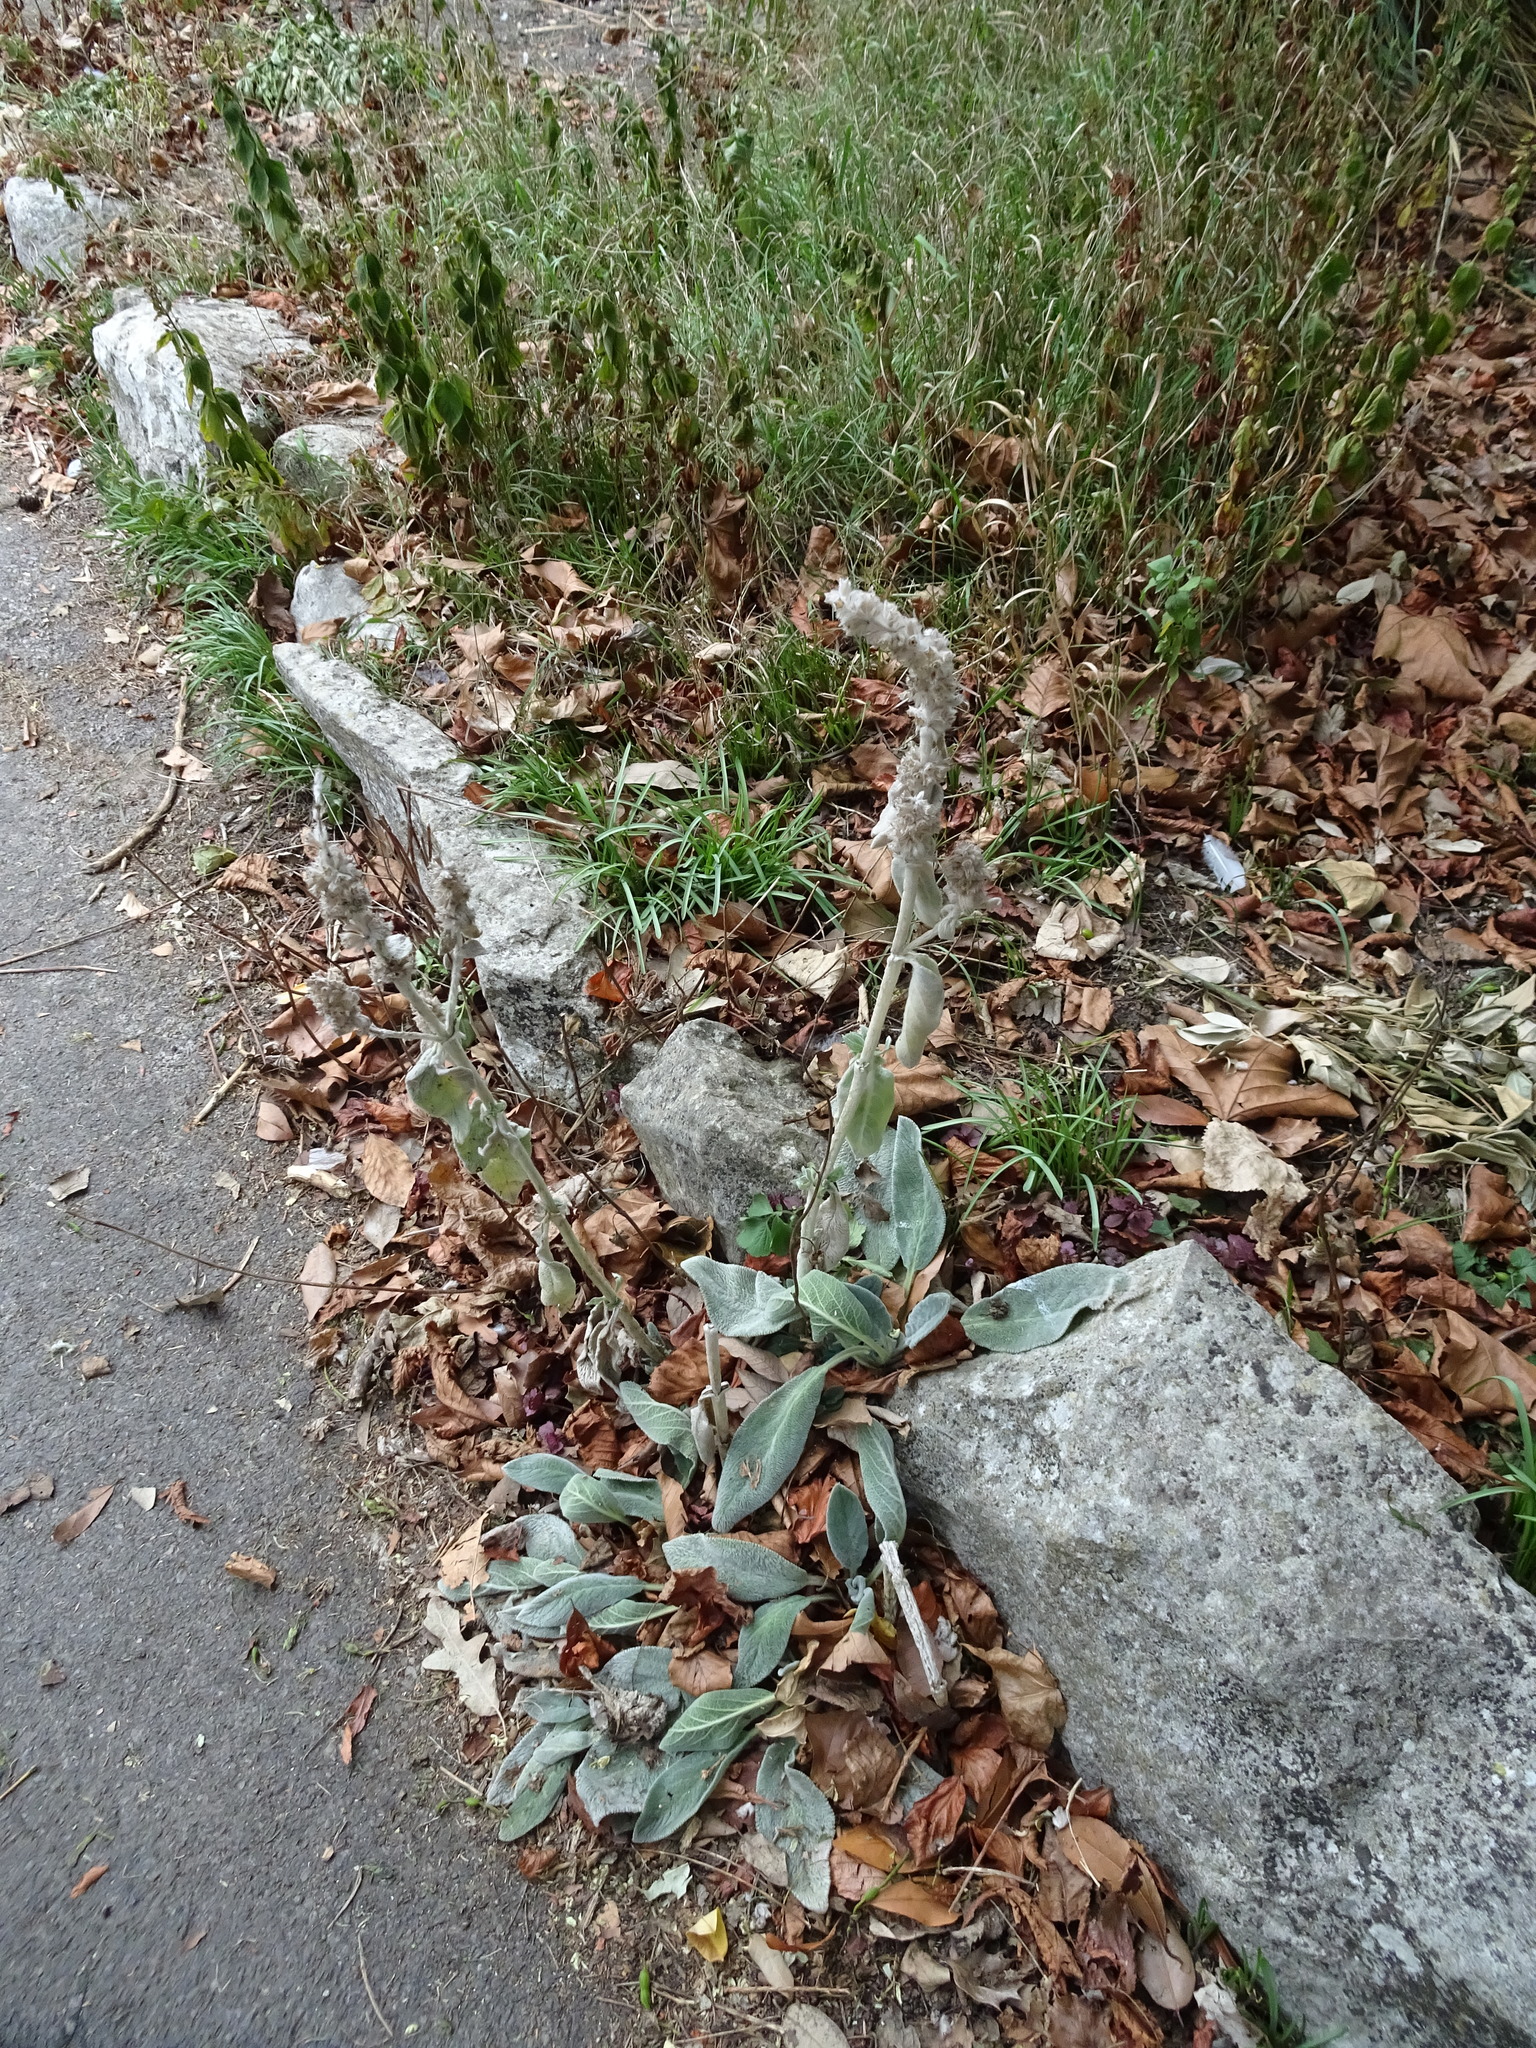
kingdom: Plantae
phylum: Tracheophyta
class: Magnoliopsida
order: Lamiales
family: Lamiaceae
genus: Stachys
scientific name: Stachys byzantina
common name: Lamb's-ear
